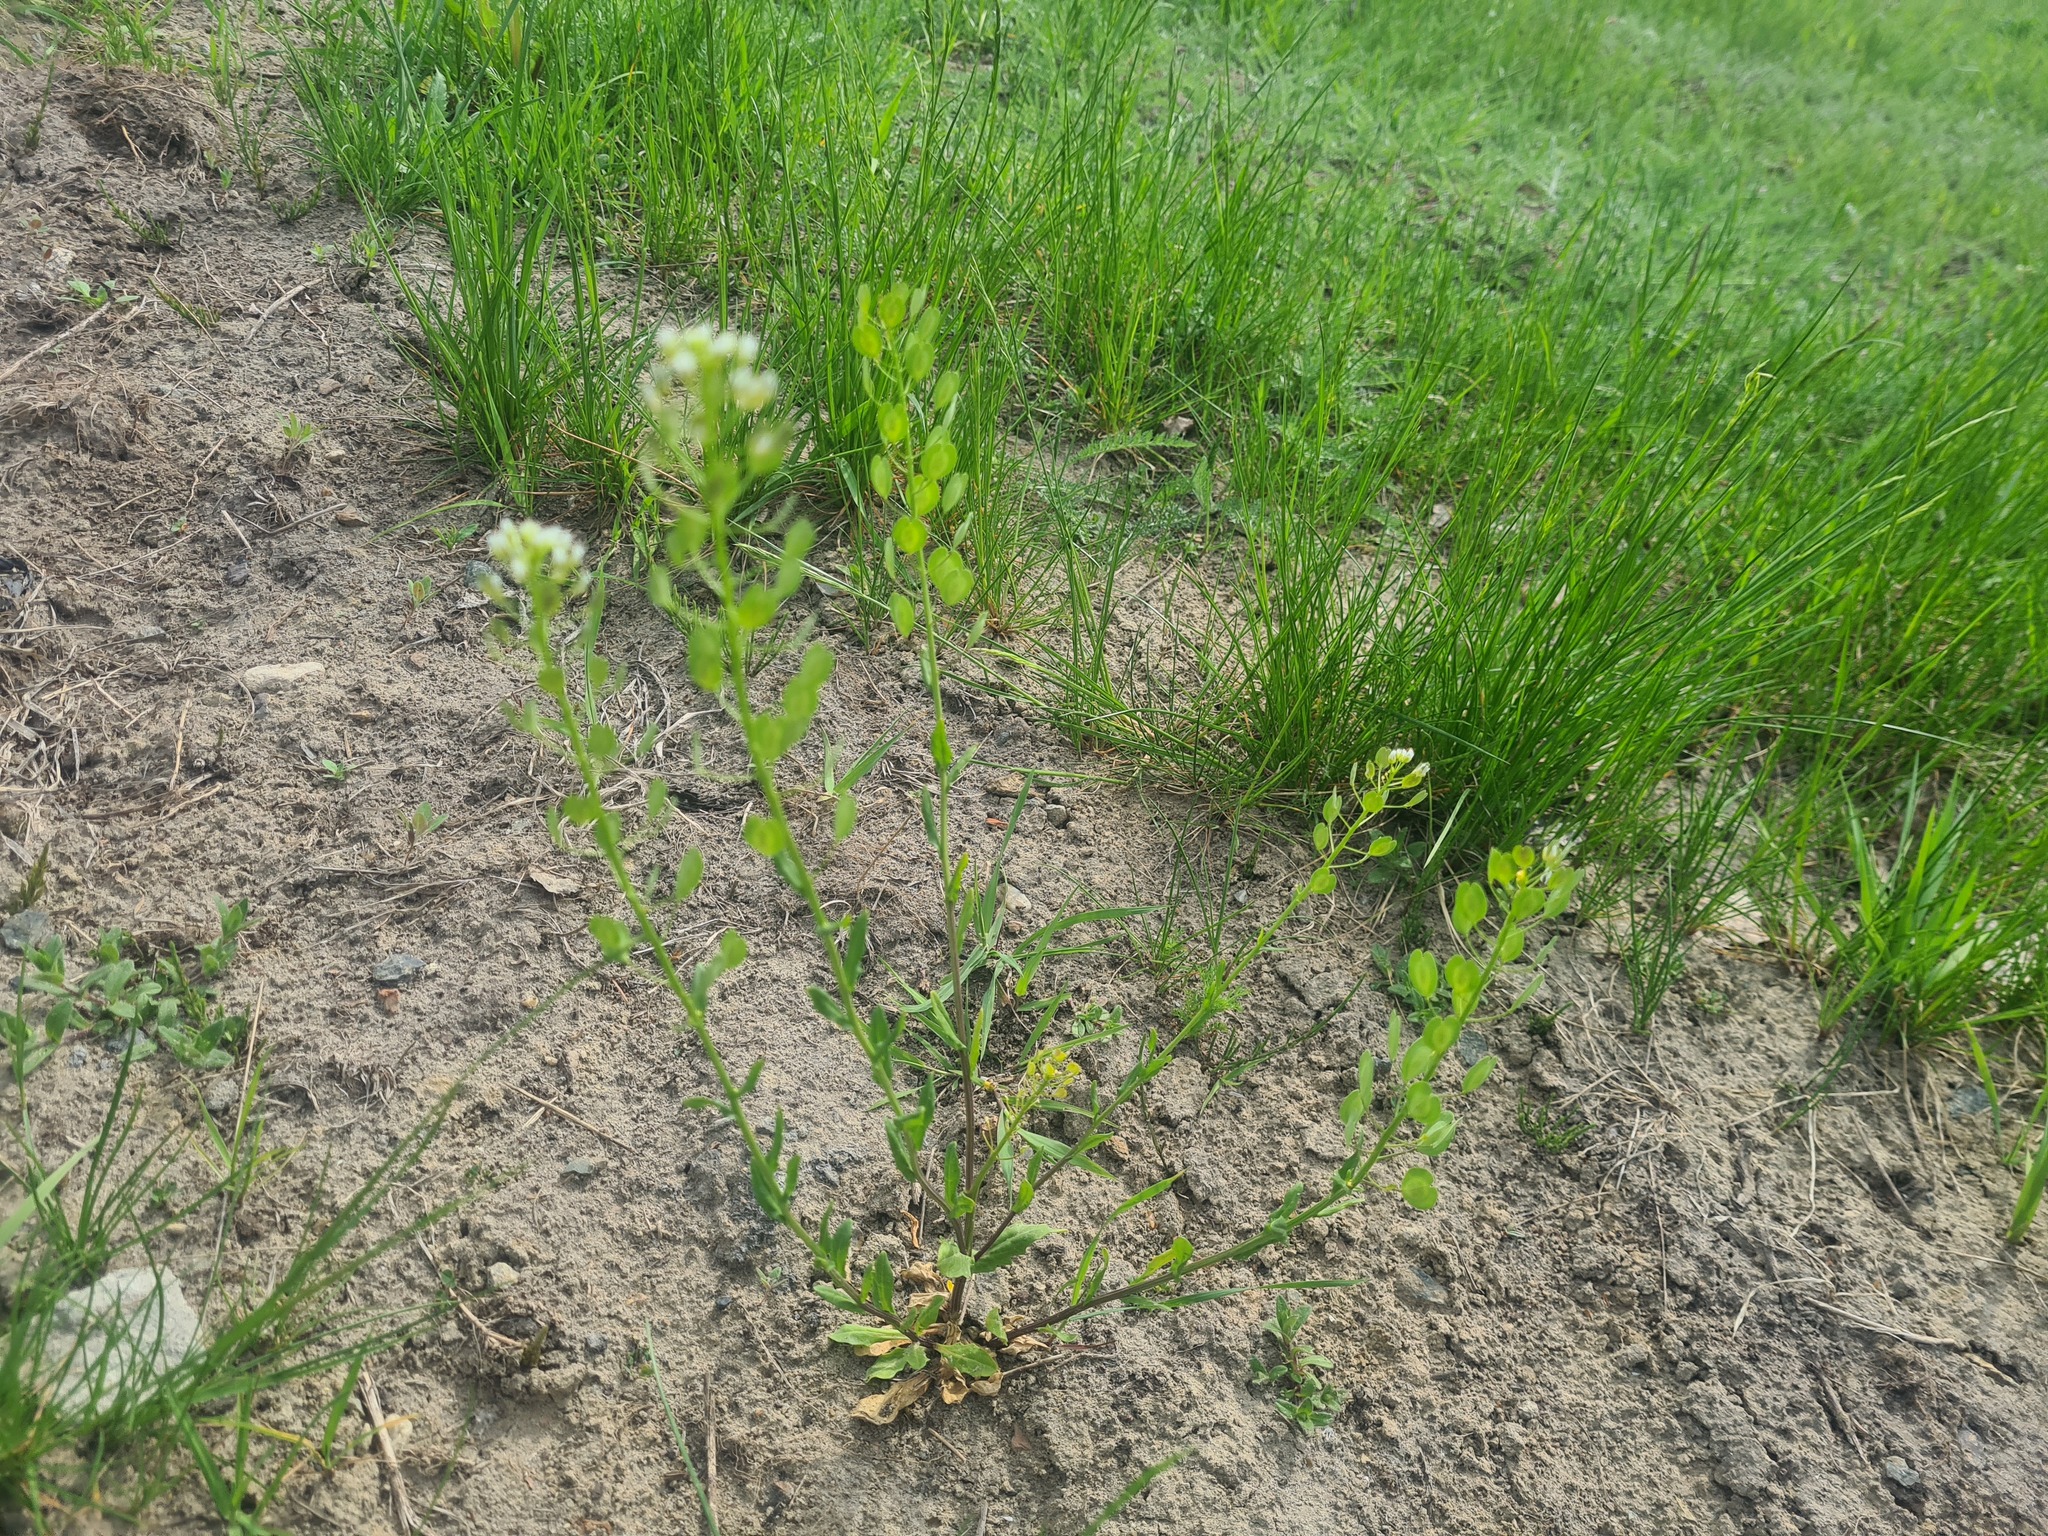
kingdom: Plantae
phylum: Tracheophyta
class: Magnoliopsida
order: Brassicales
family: Brassicaceae
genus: Thlaspi
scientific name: Thlaspi arvense
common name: Field pennycress
